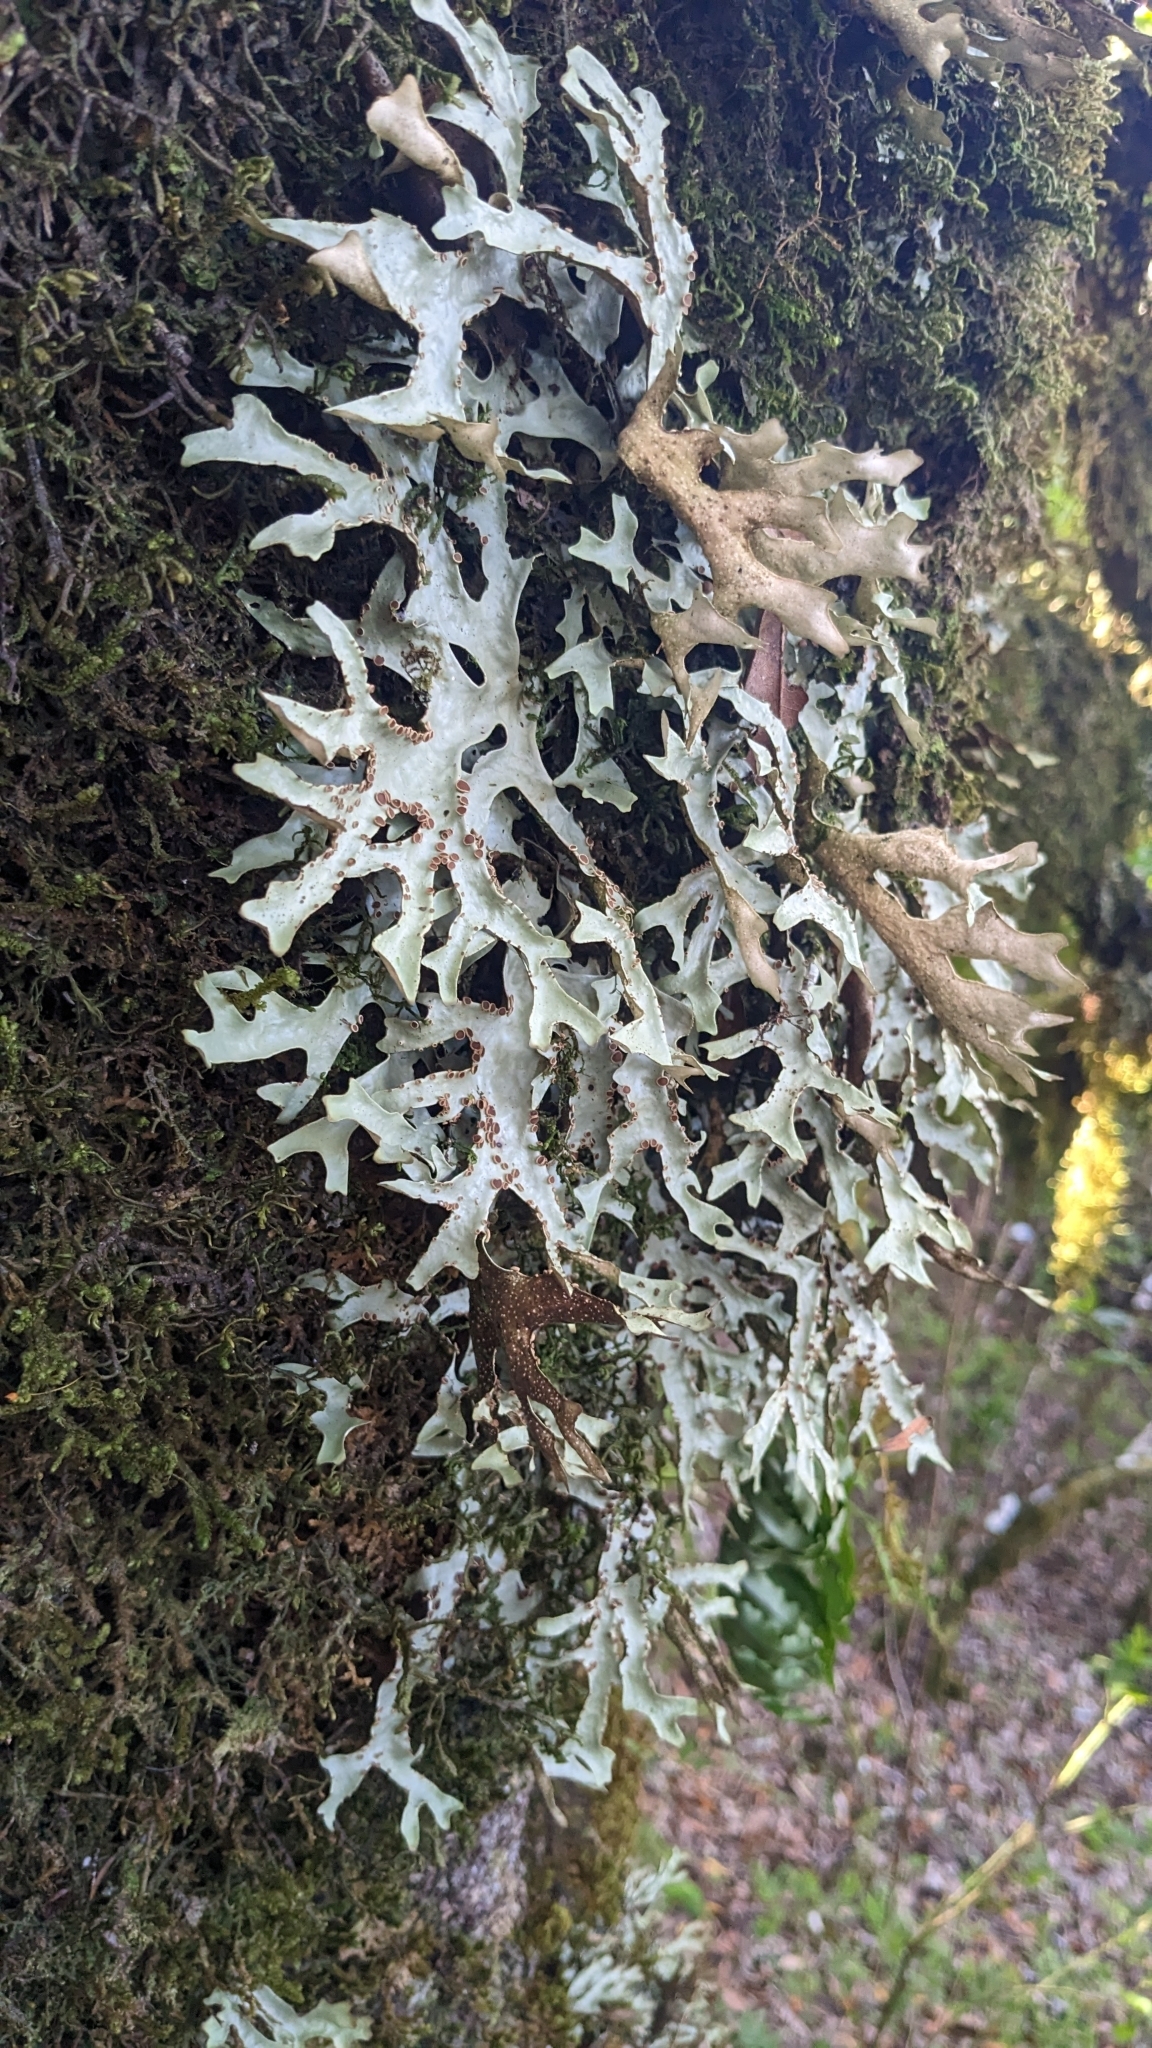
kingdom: Fungi
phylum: Ascomycota
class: Lecanoromycetes
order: Peltigerales
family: Lobariaceae
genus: Sticta
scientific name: Sticta canariensis
